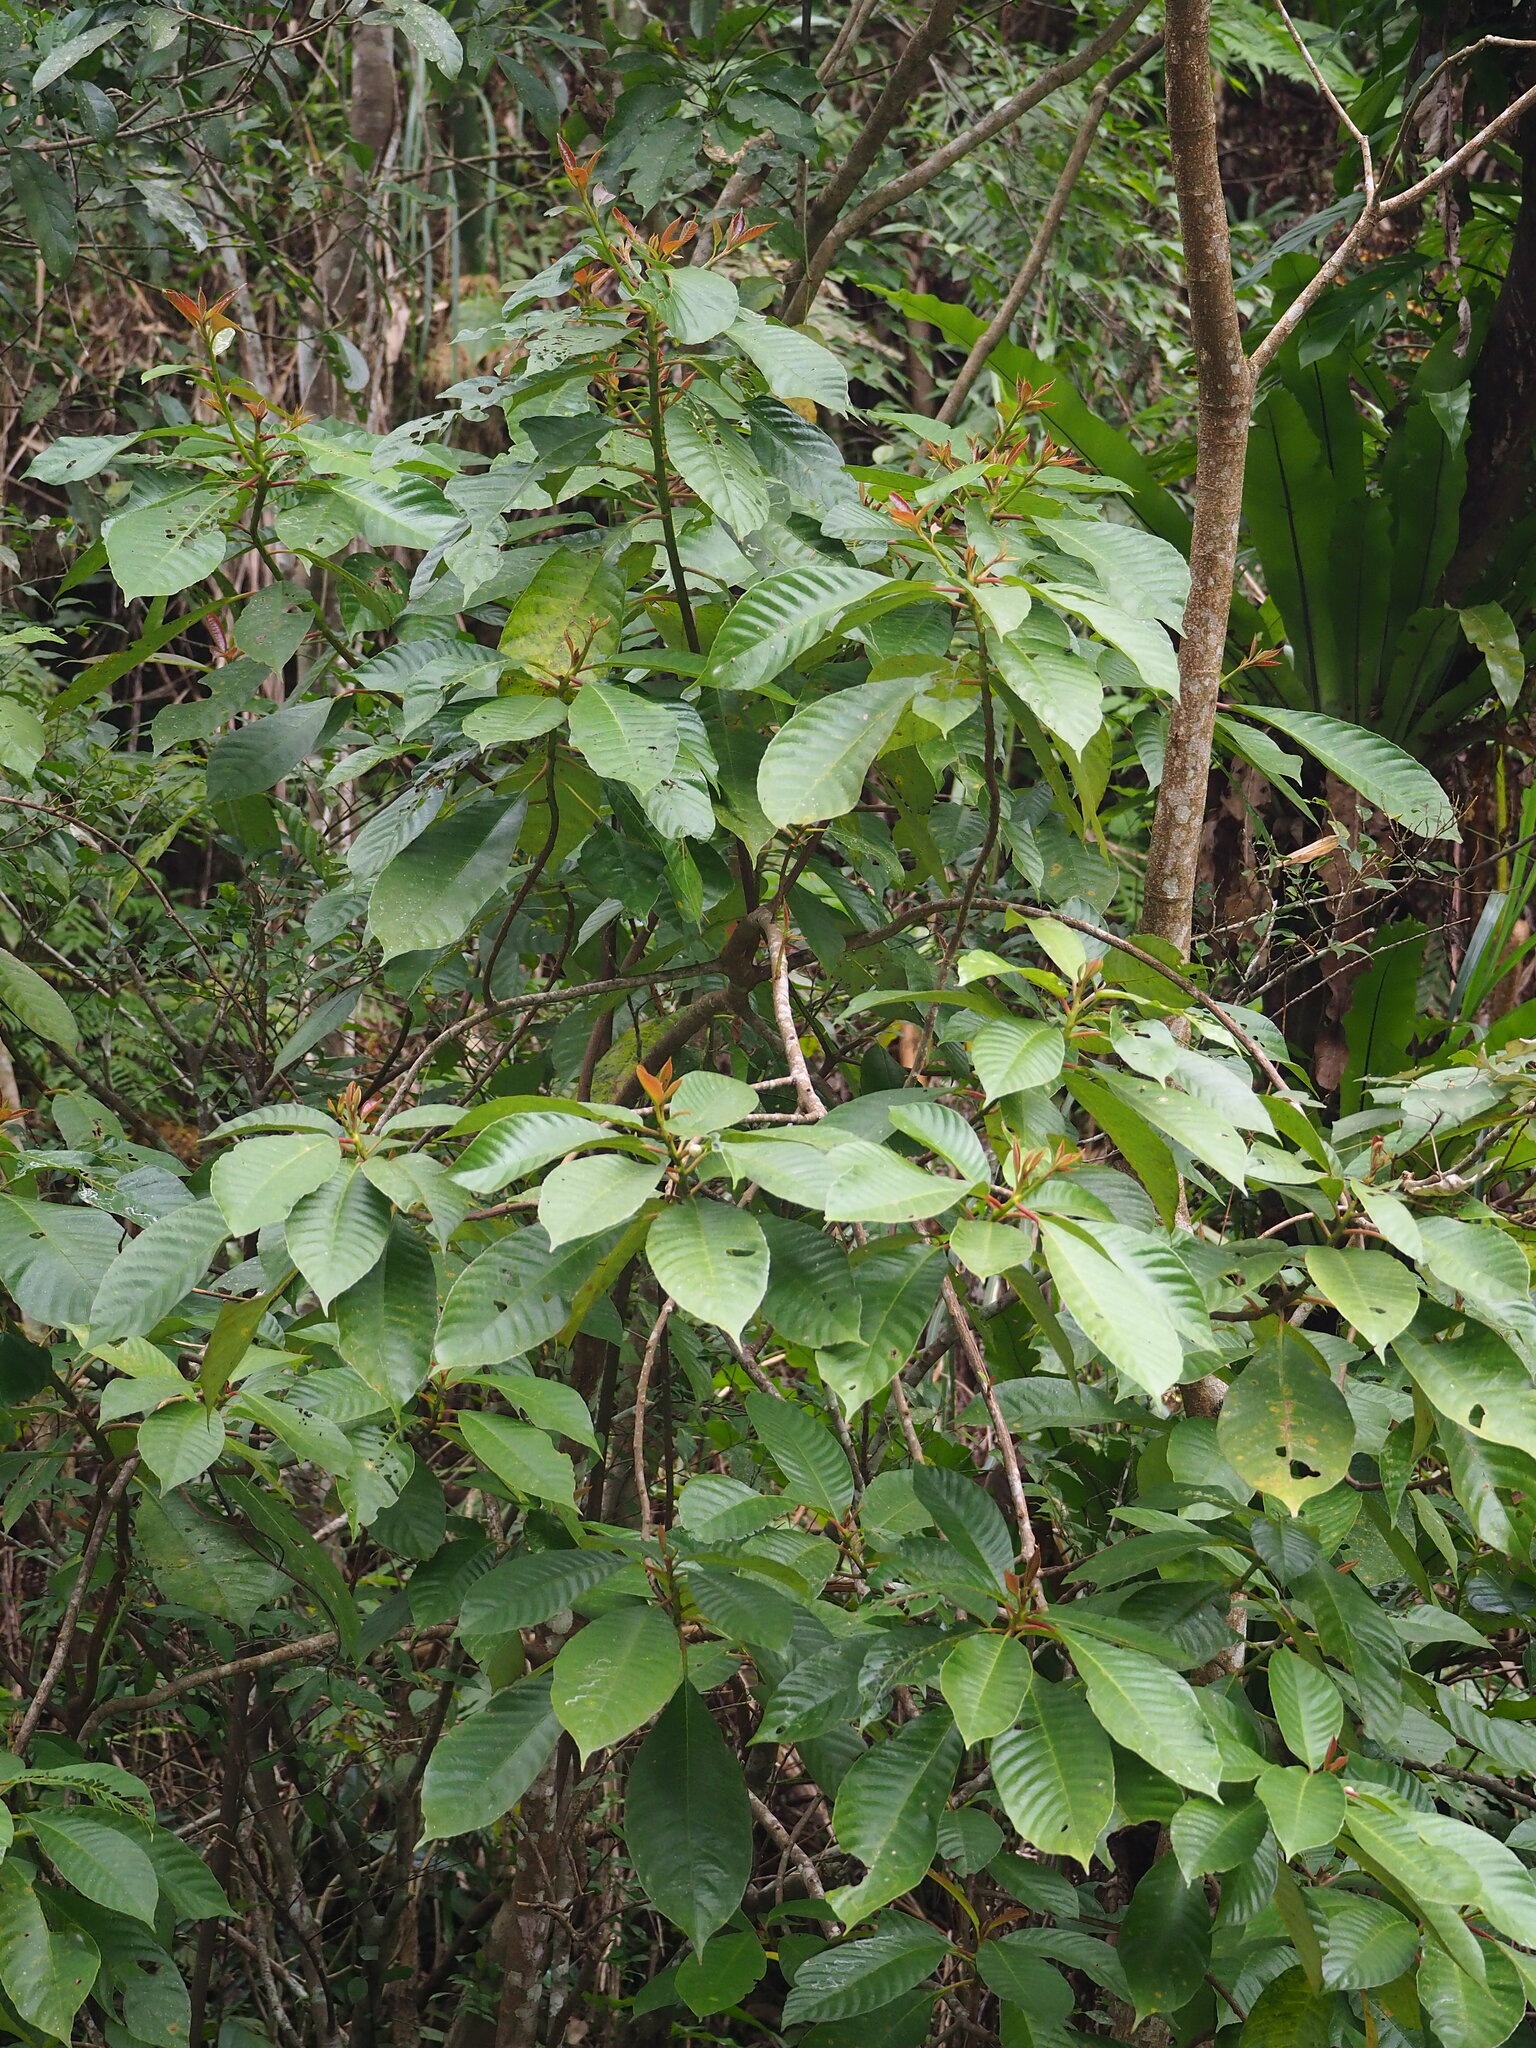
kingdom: Plantae
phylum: Tracheophyta
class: Magnoliopsida
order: Ericales
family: Actinidiaceae
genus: Saurauia
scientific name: Saurauia tristyla
